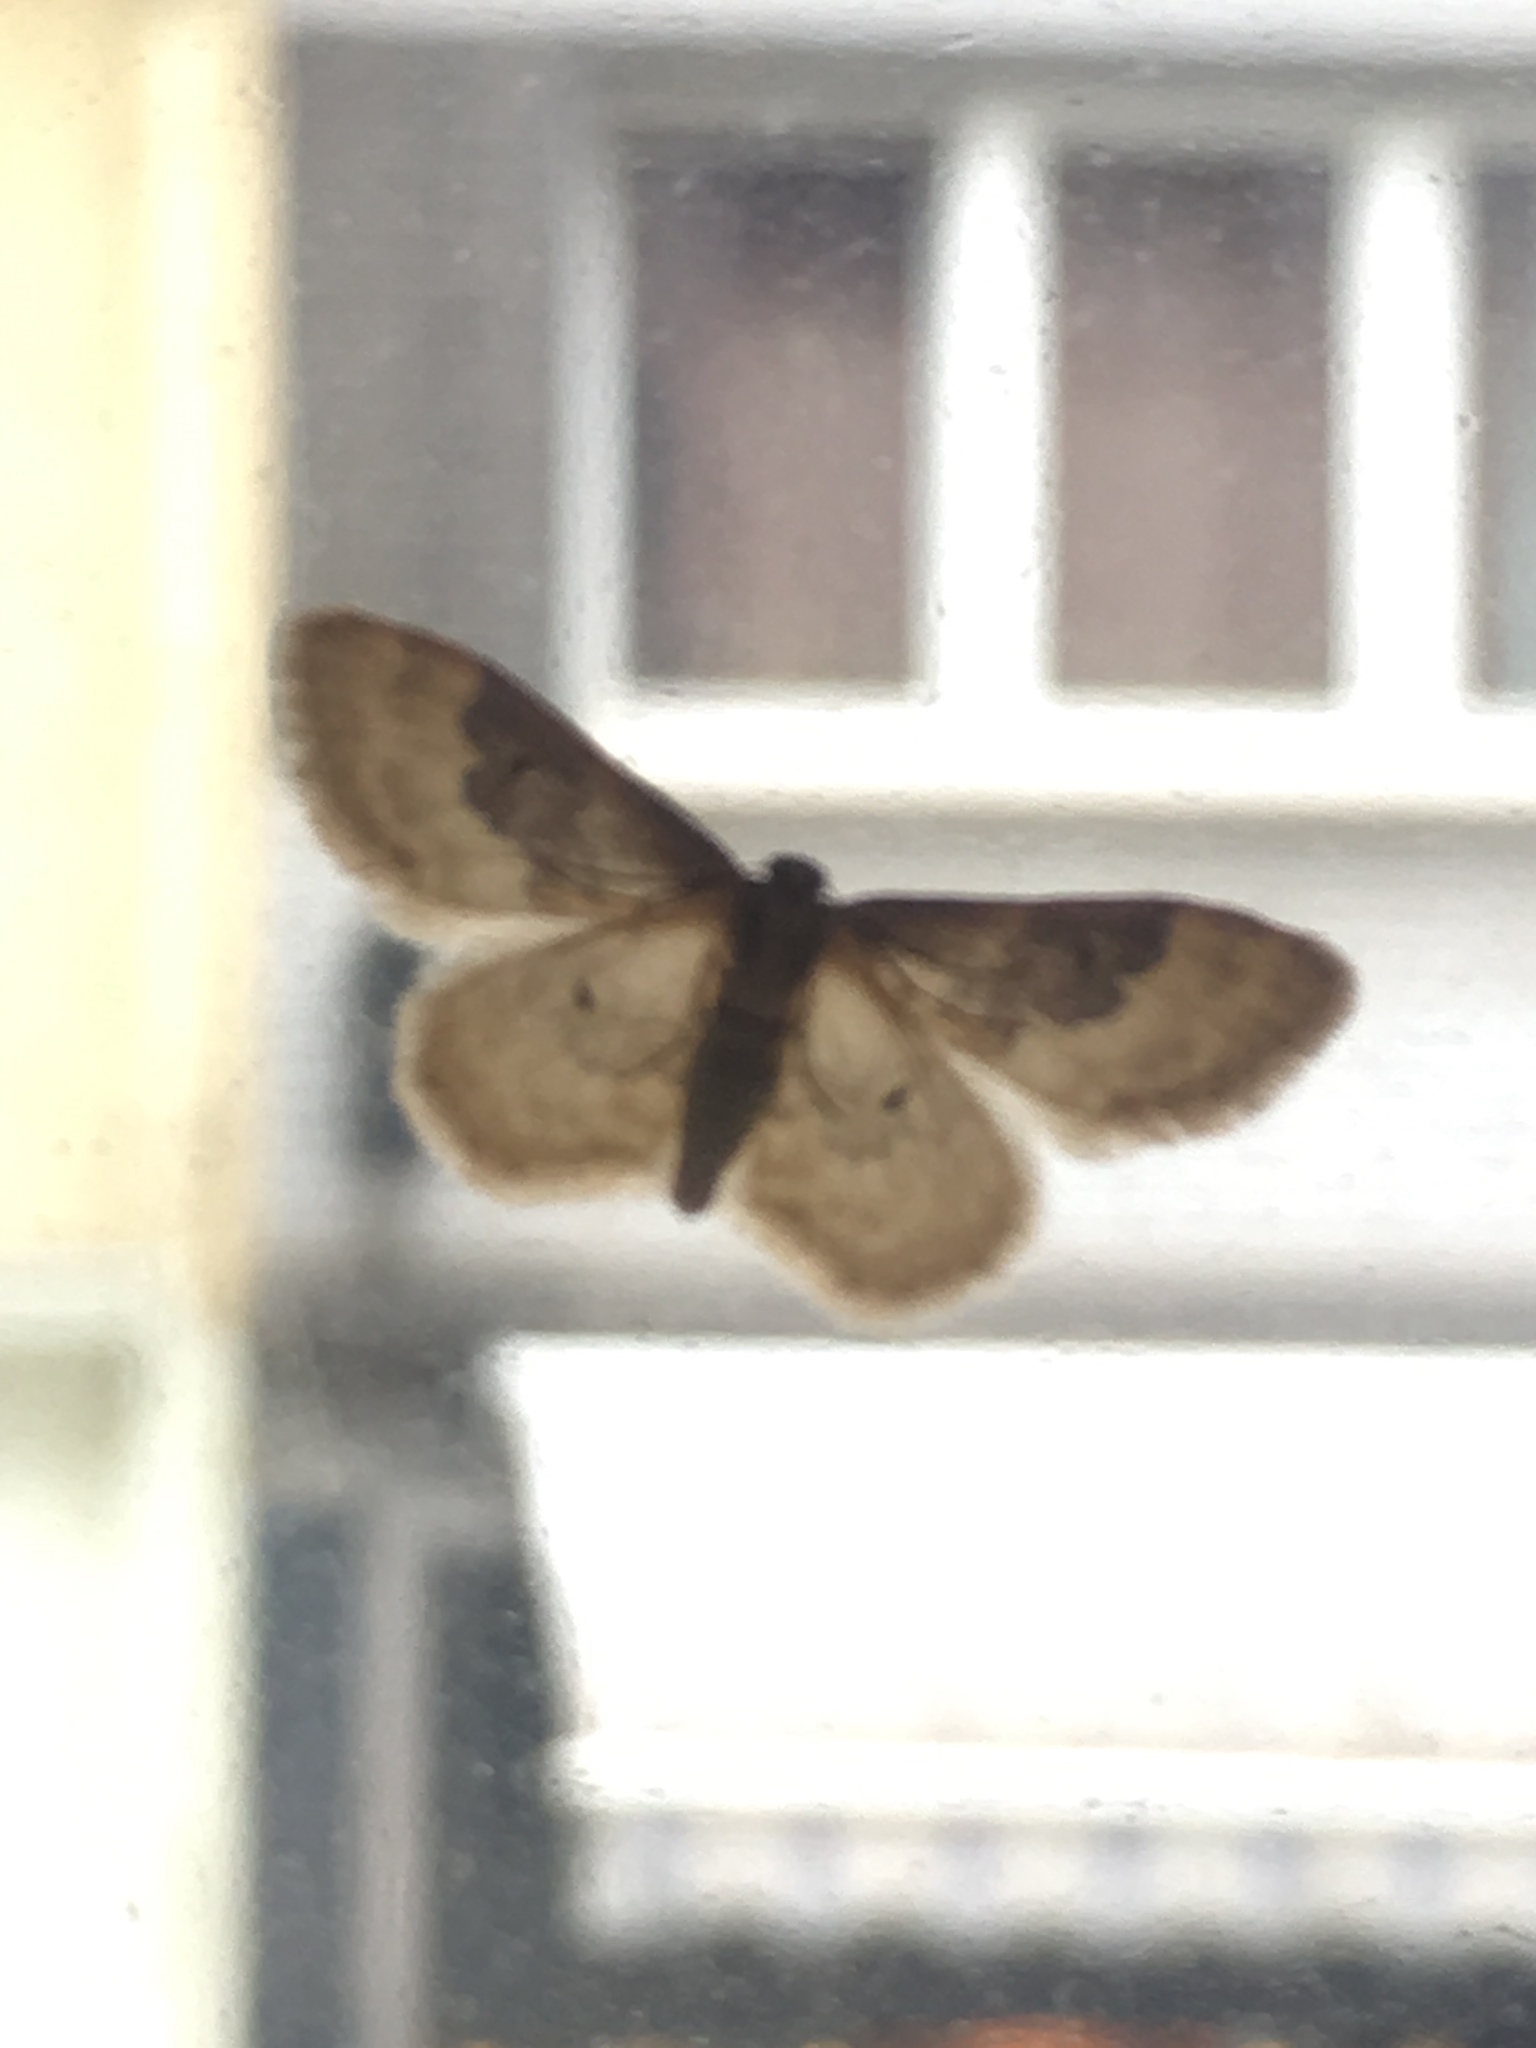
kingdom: Animalia
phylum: Arthropoda
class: Insecta
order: Lepidoptera
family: Geometridae
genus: Idaea
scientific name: Idaea rusticata
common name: Least carpet
